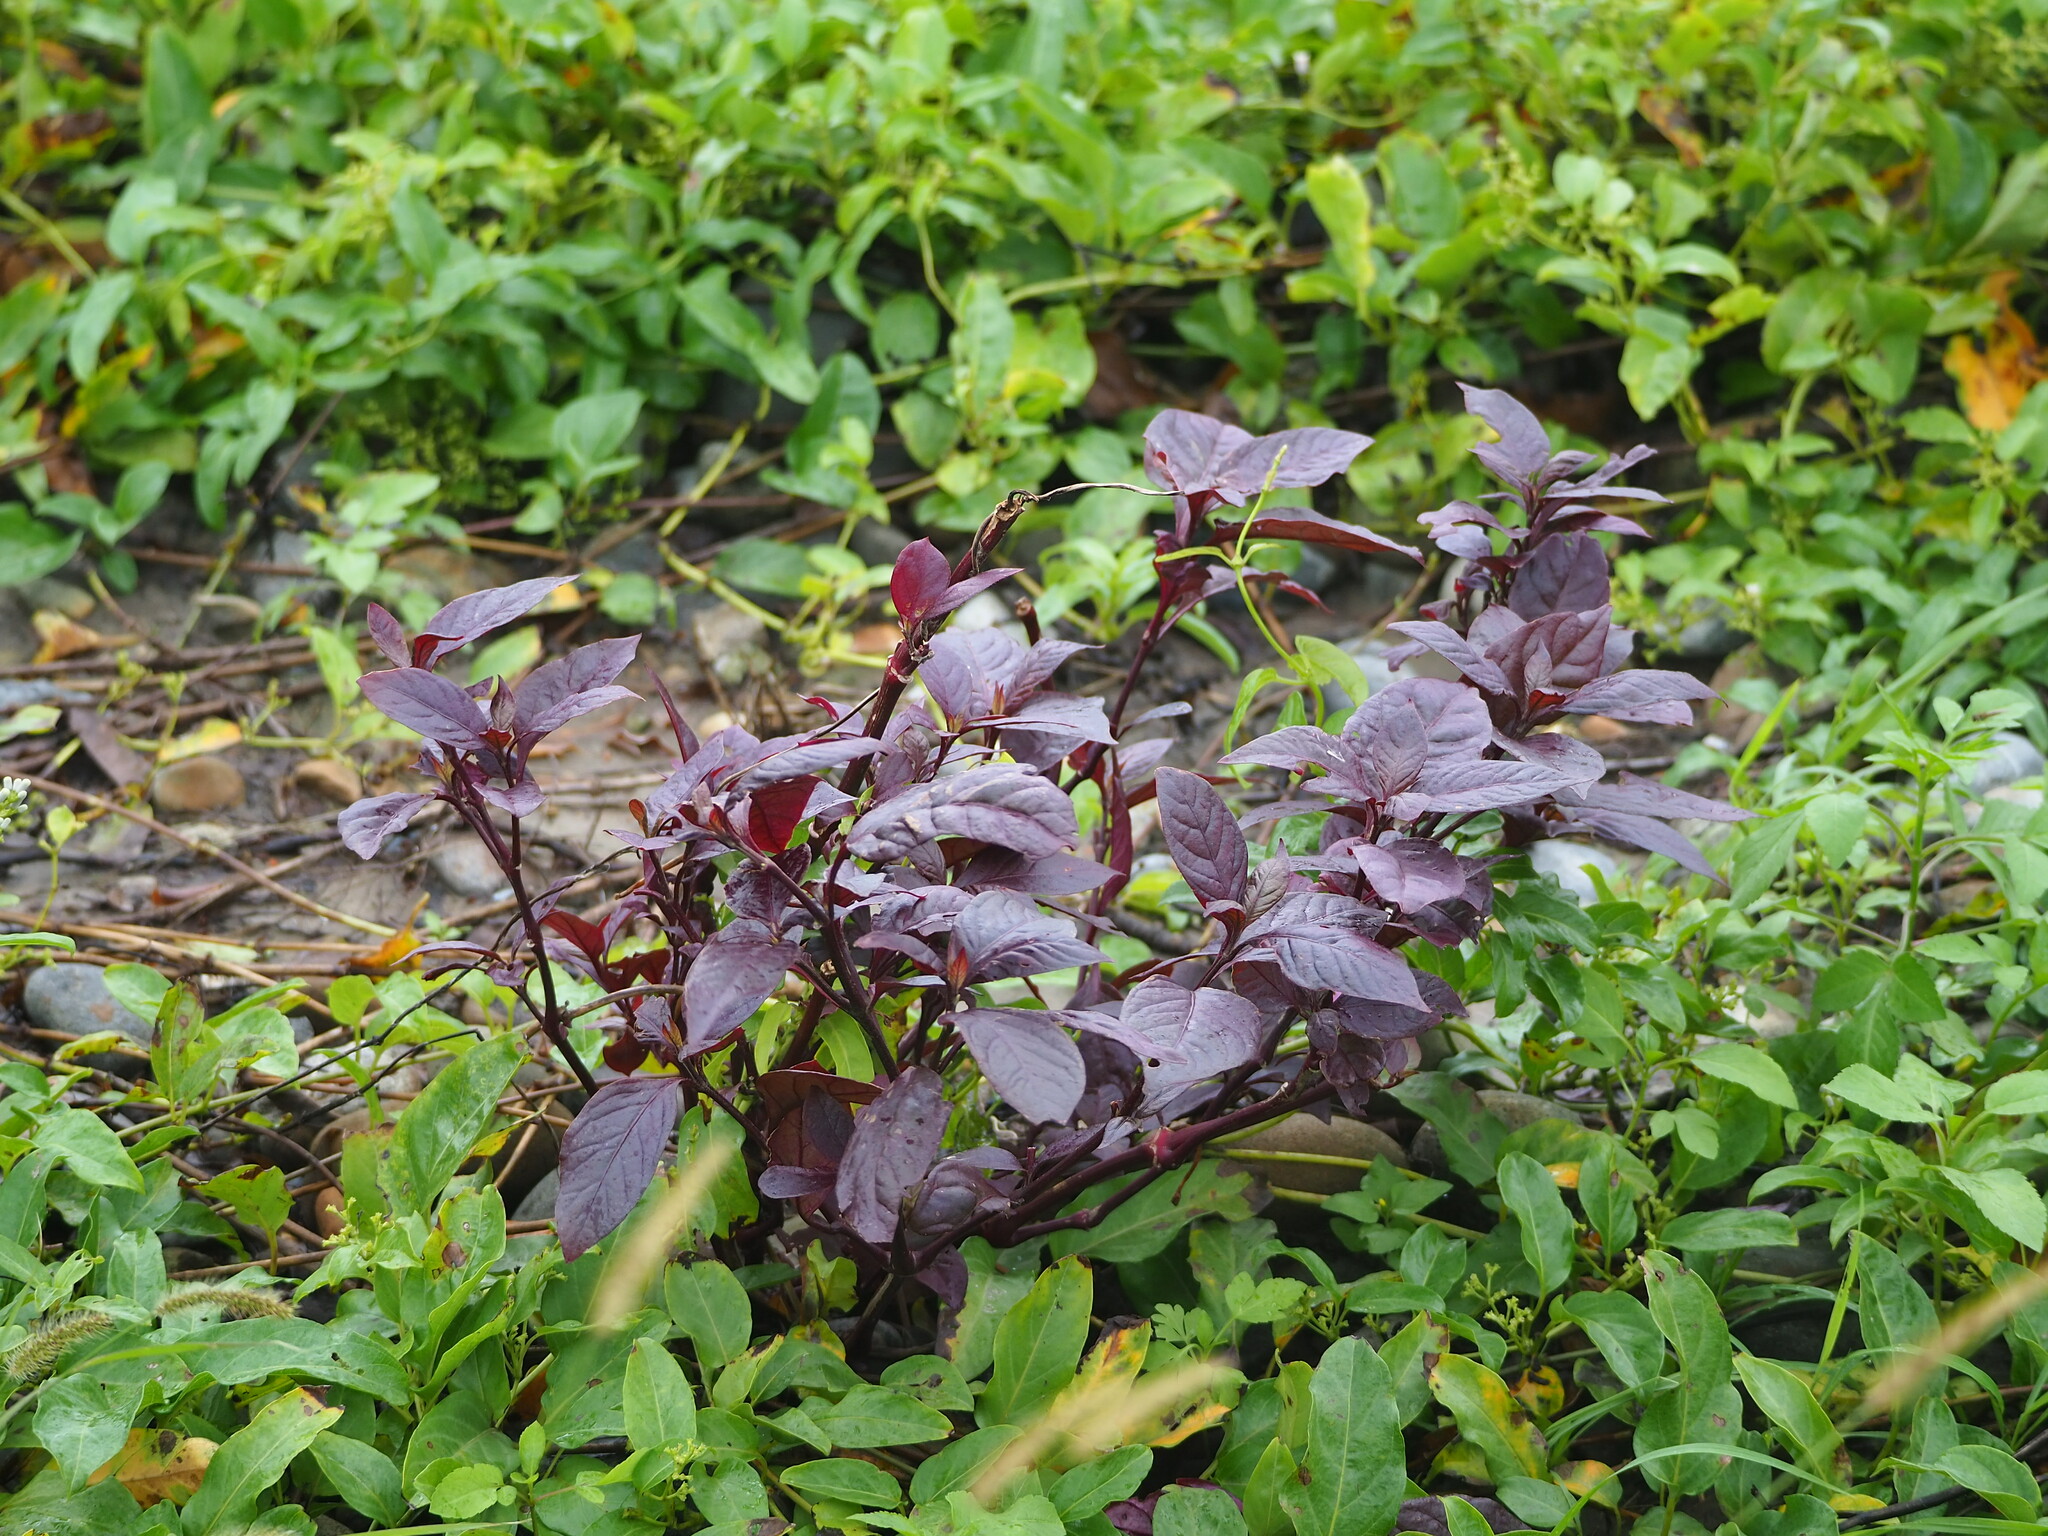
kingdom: Plantae
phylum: Tracheophyta
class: Magnoliopsida
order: Caryophyllales
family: Amaranthaceae
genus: Alternanthera
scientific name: Alternanthera brasiliana
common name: Brazilian joyweed
